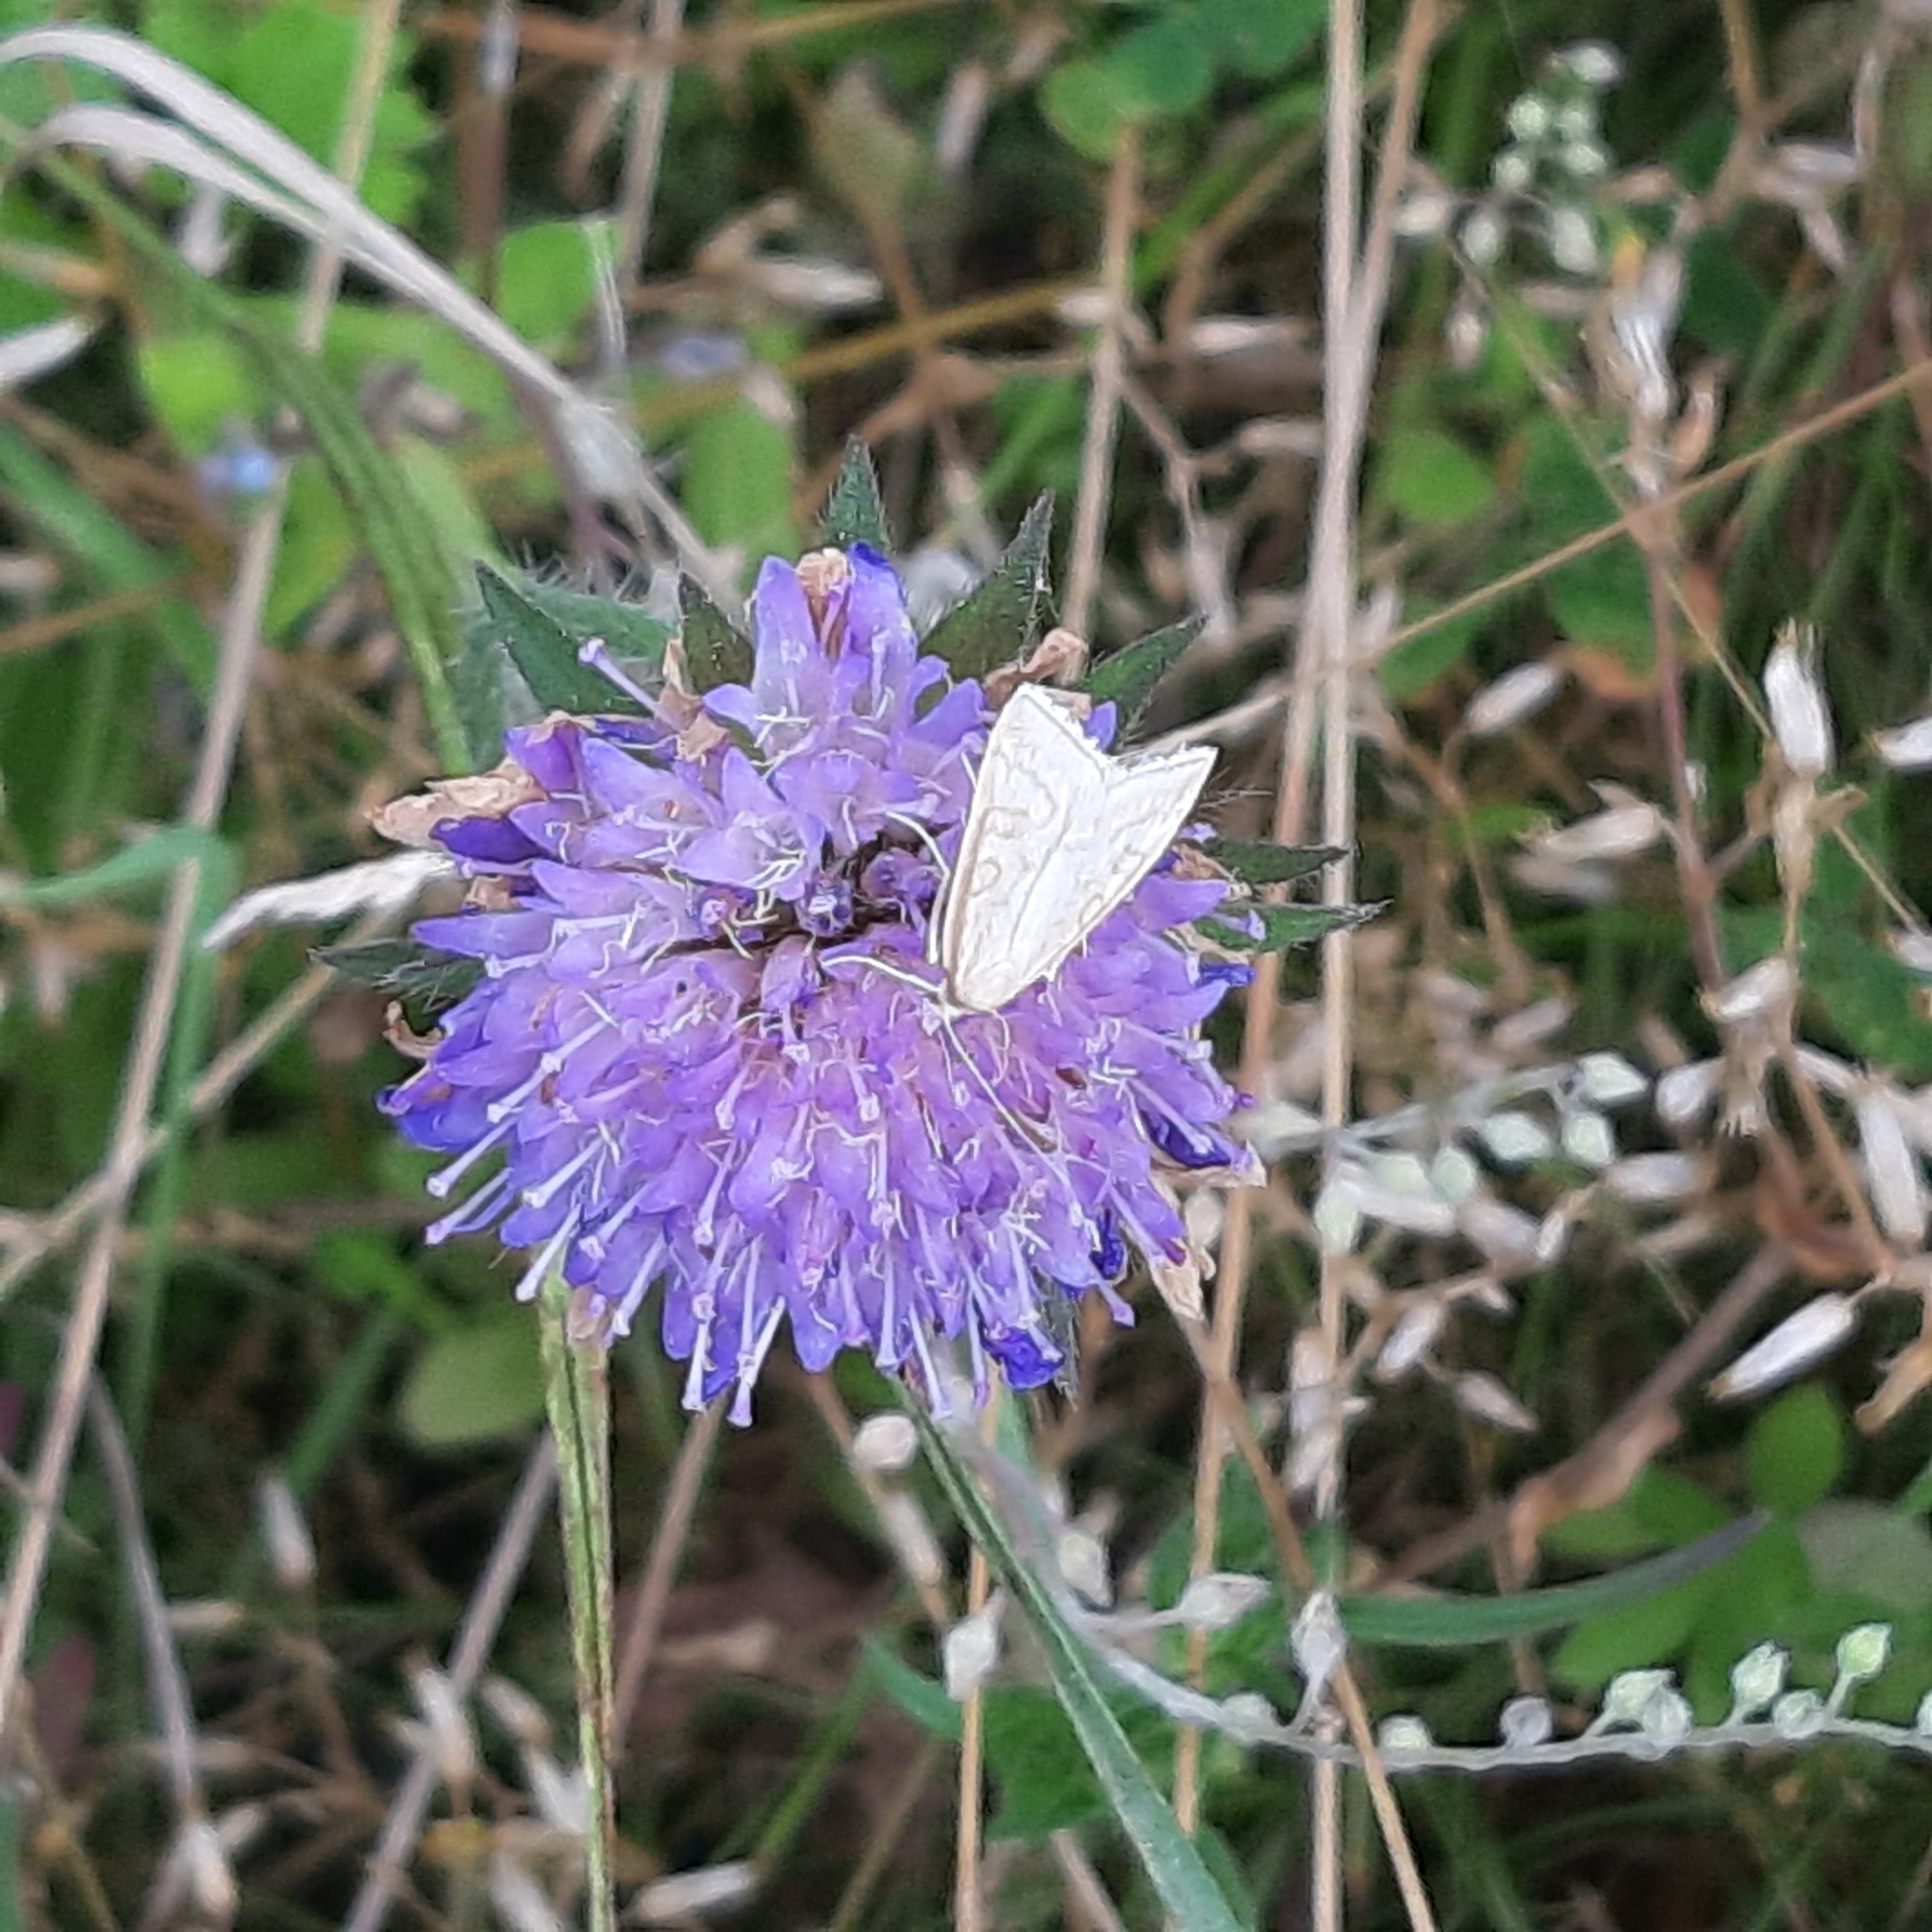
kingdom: Plantae
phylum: Tracheophyta
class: Magnoliopsida
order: Dipsacales
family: Caprifoliaceae
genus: Knautia
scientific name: Knautia arvensis
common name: Field scabiosa
